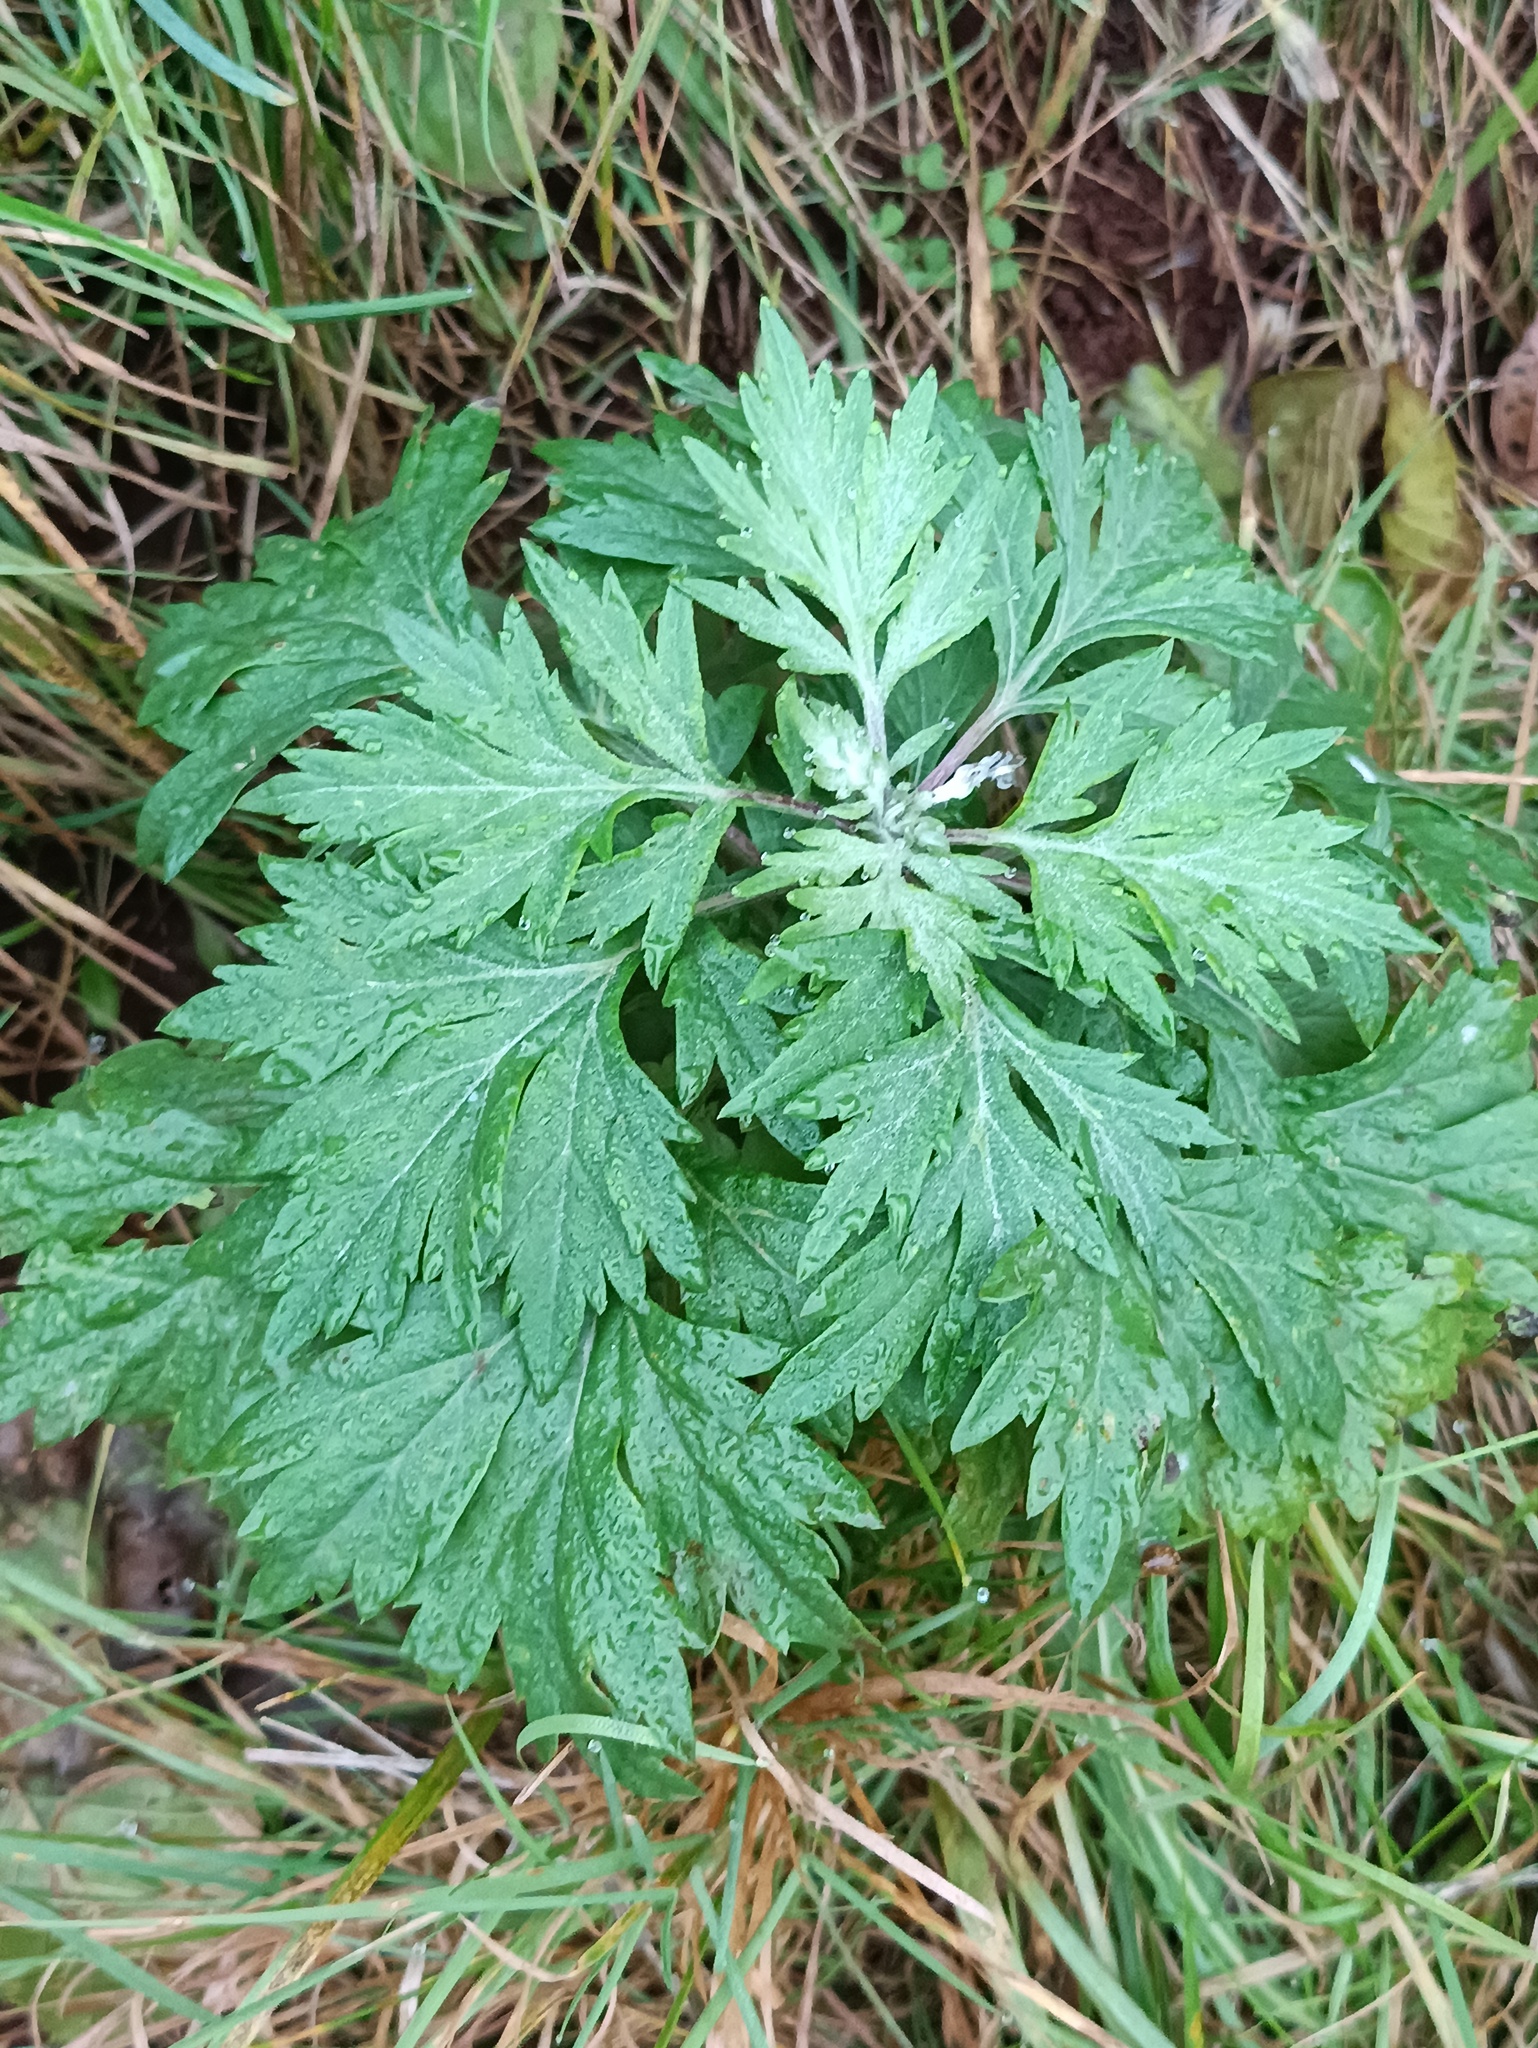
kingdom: Plantae
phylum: Tracheophyta
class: Magnoliopsida
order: Asterales
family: Asteraceae
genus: Artemisia
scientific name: Artemisia vulgaris
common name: Mugwort
